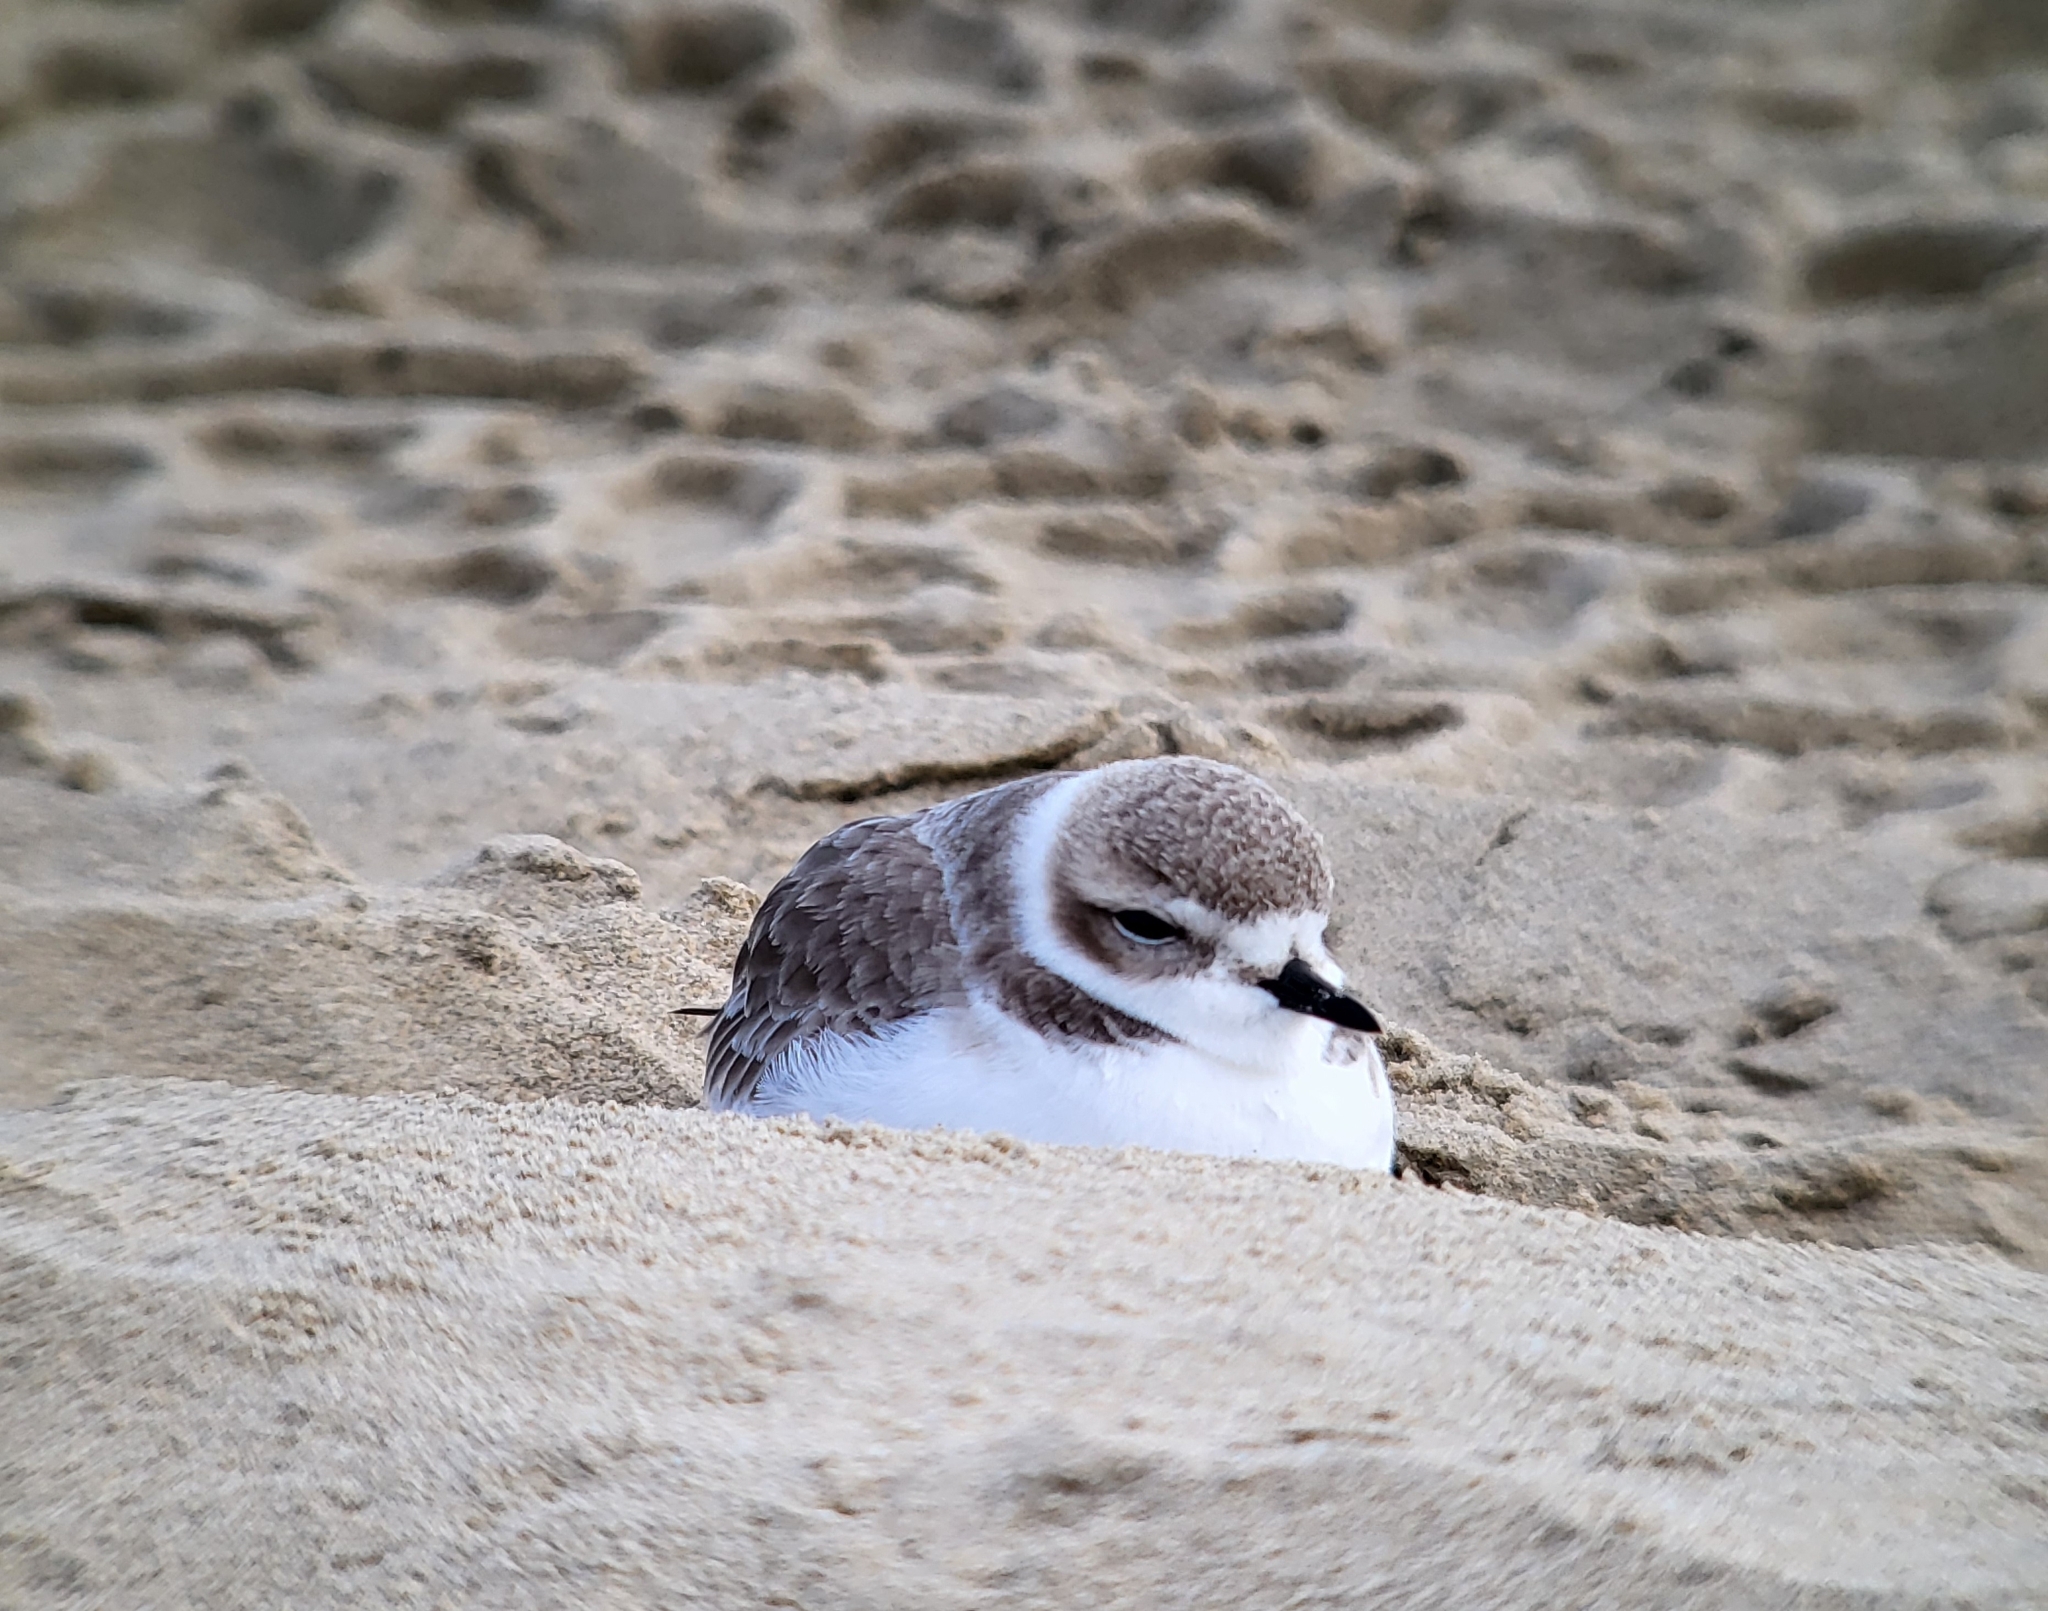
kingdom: Animalia
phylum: Chordata
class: Aves
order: Charadriiformes
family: Charadriidae
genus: Anarhynchus
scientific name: Anarhynchus
